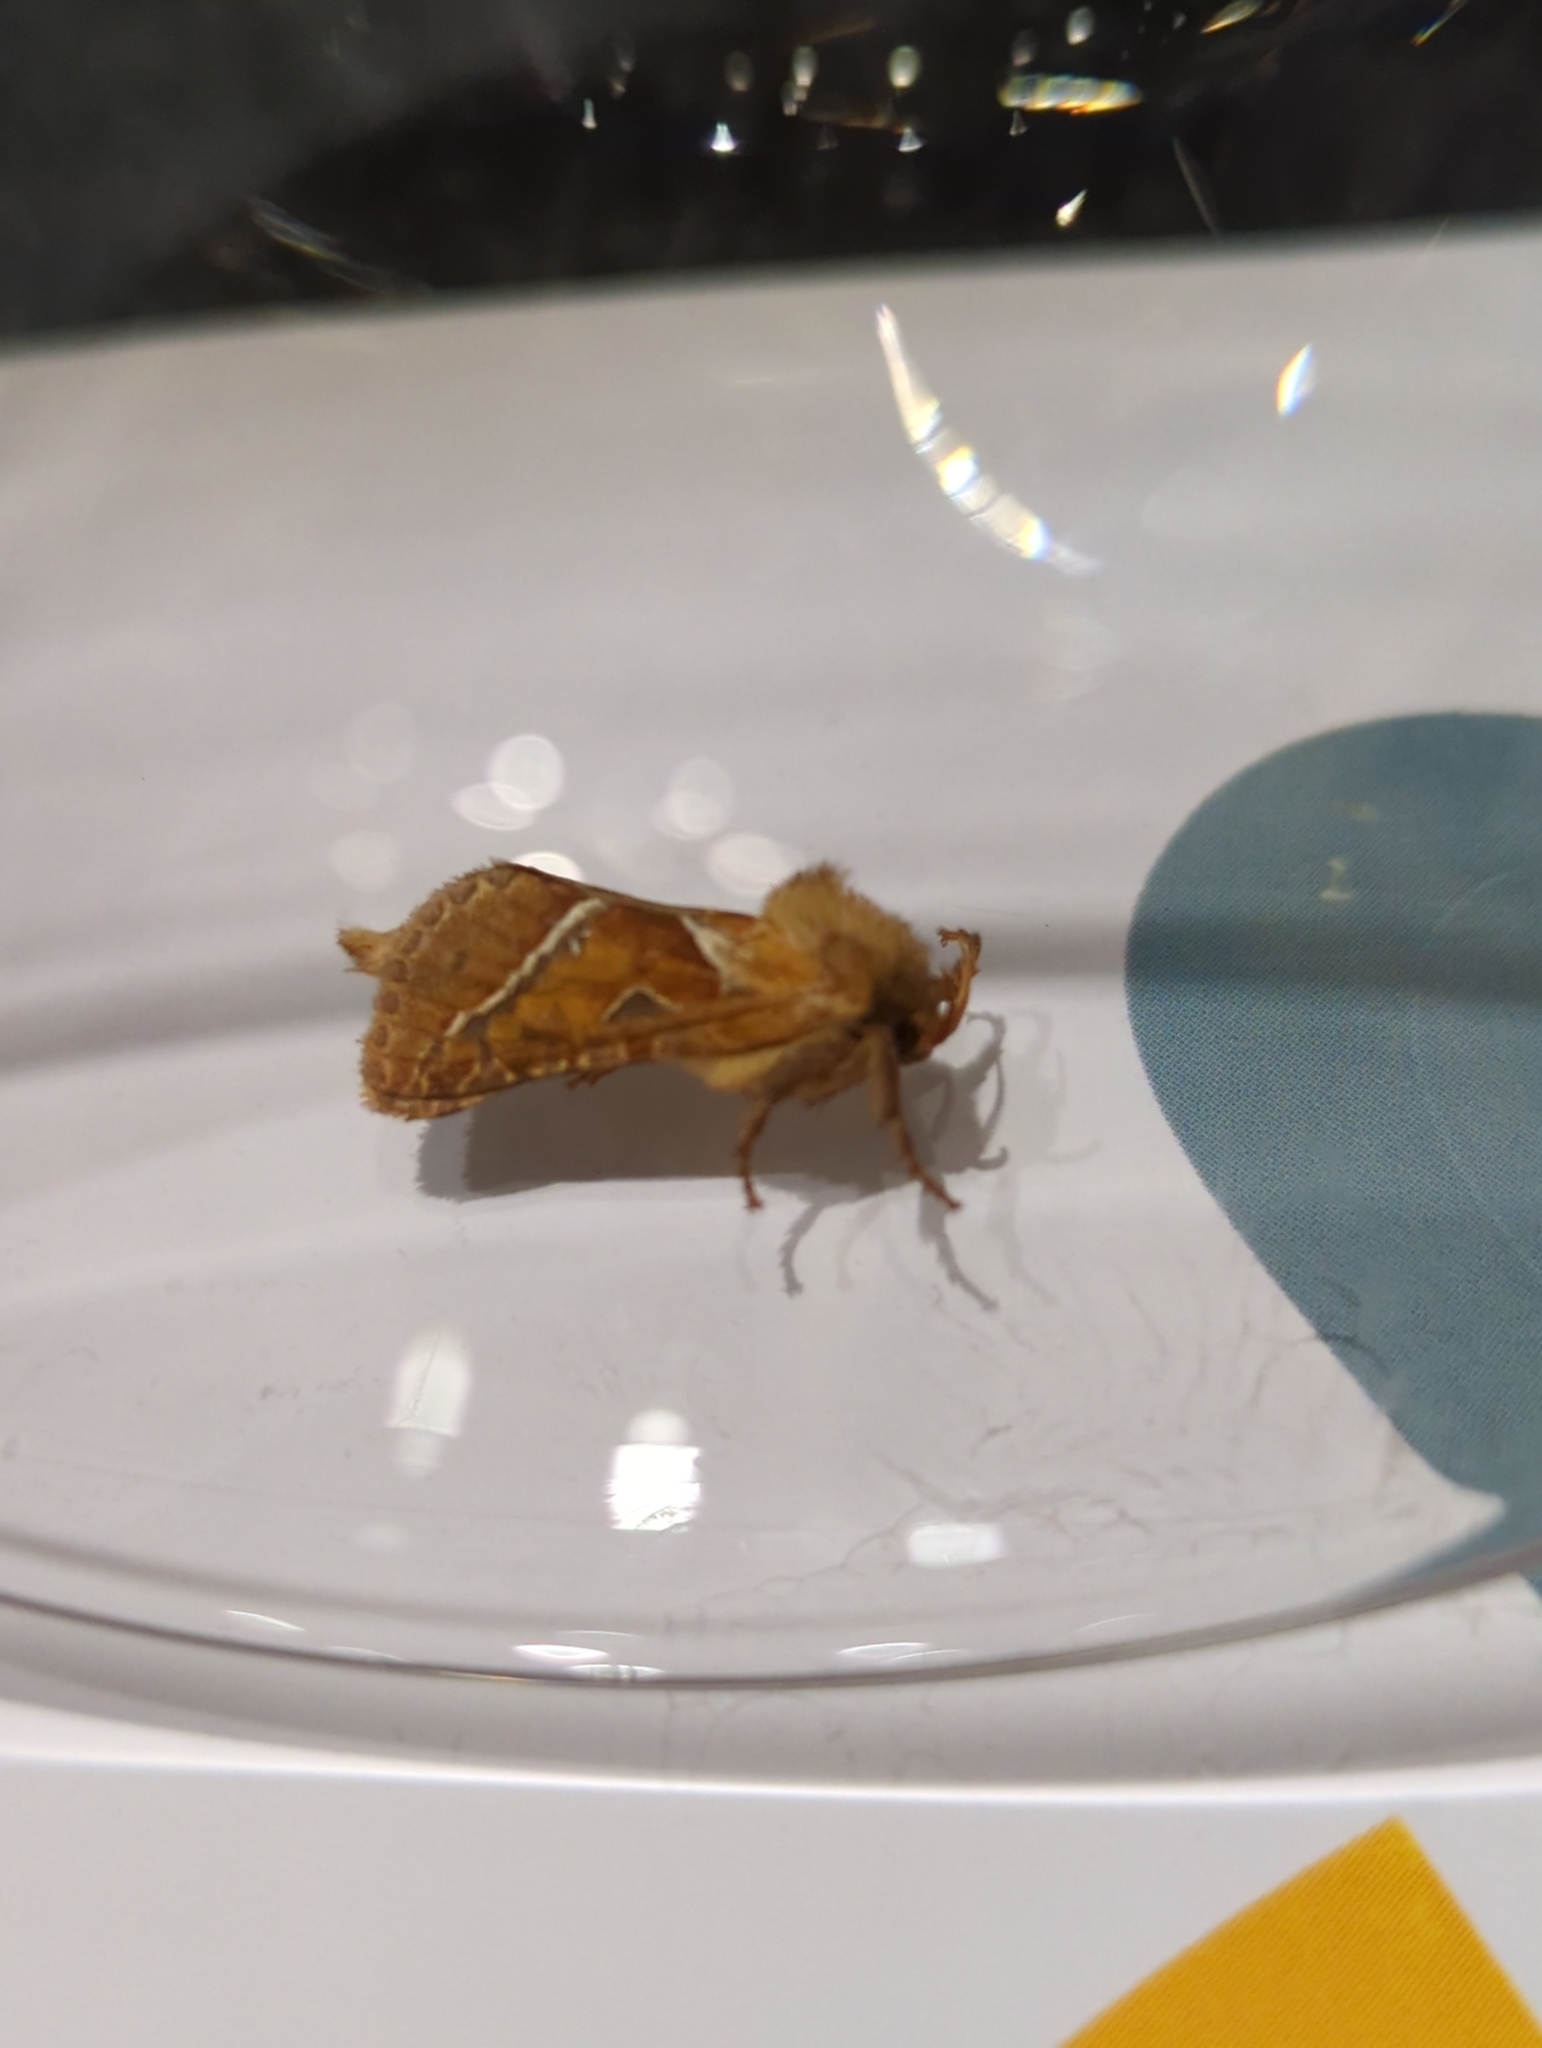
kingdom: Animalia
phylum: Arthropoda
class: Insecta
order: Lepidoptera
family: Hepialidae
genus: Triodia
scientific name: Triodia sylvina
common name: Orange swift
